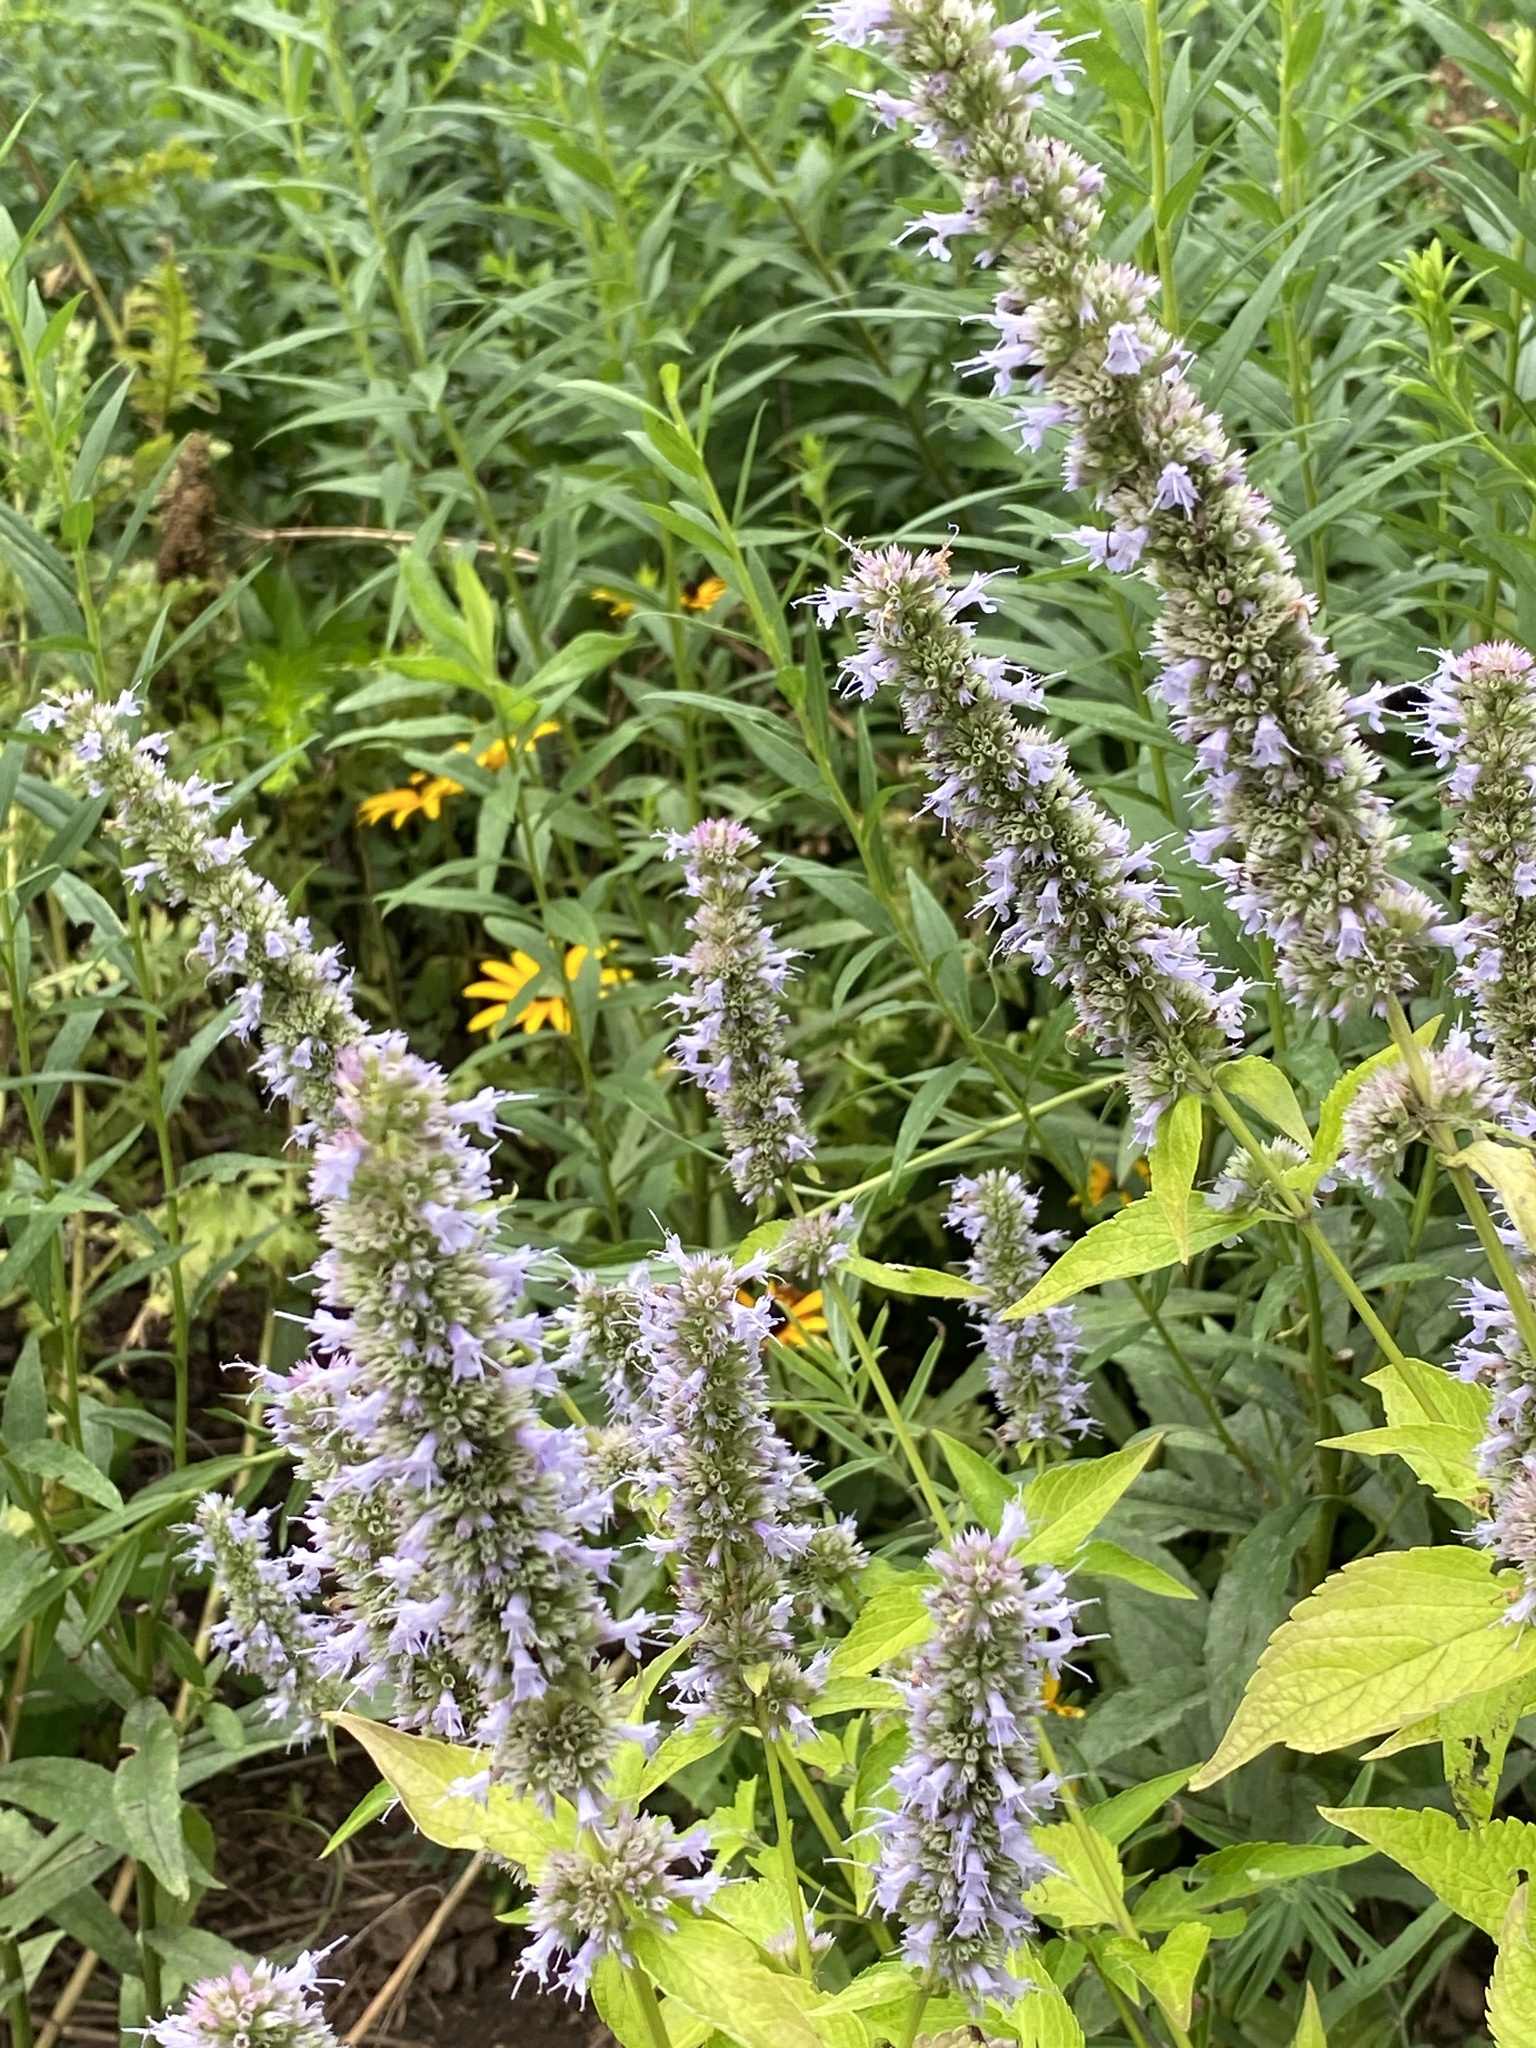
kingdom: Plantae
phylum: Tracheophyta
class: Magnoliopsida
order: Lamiales
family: Lamiaceae
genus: Agastache
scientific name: Agastache foeniculum
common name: Anise hyssop
